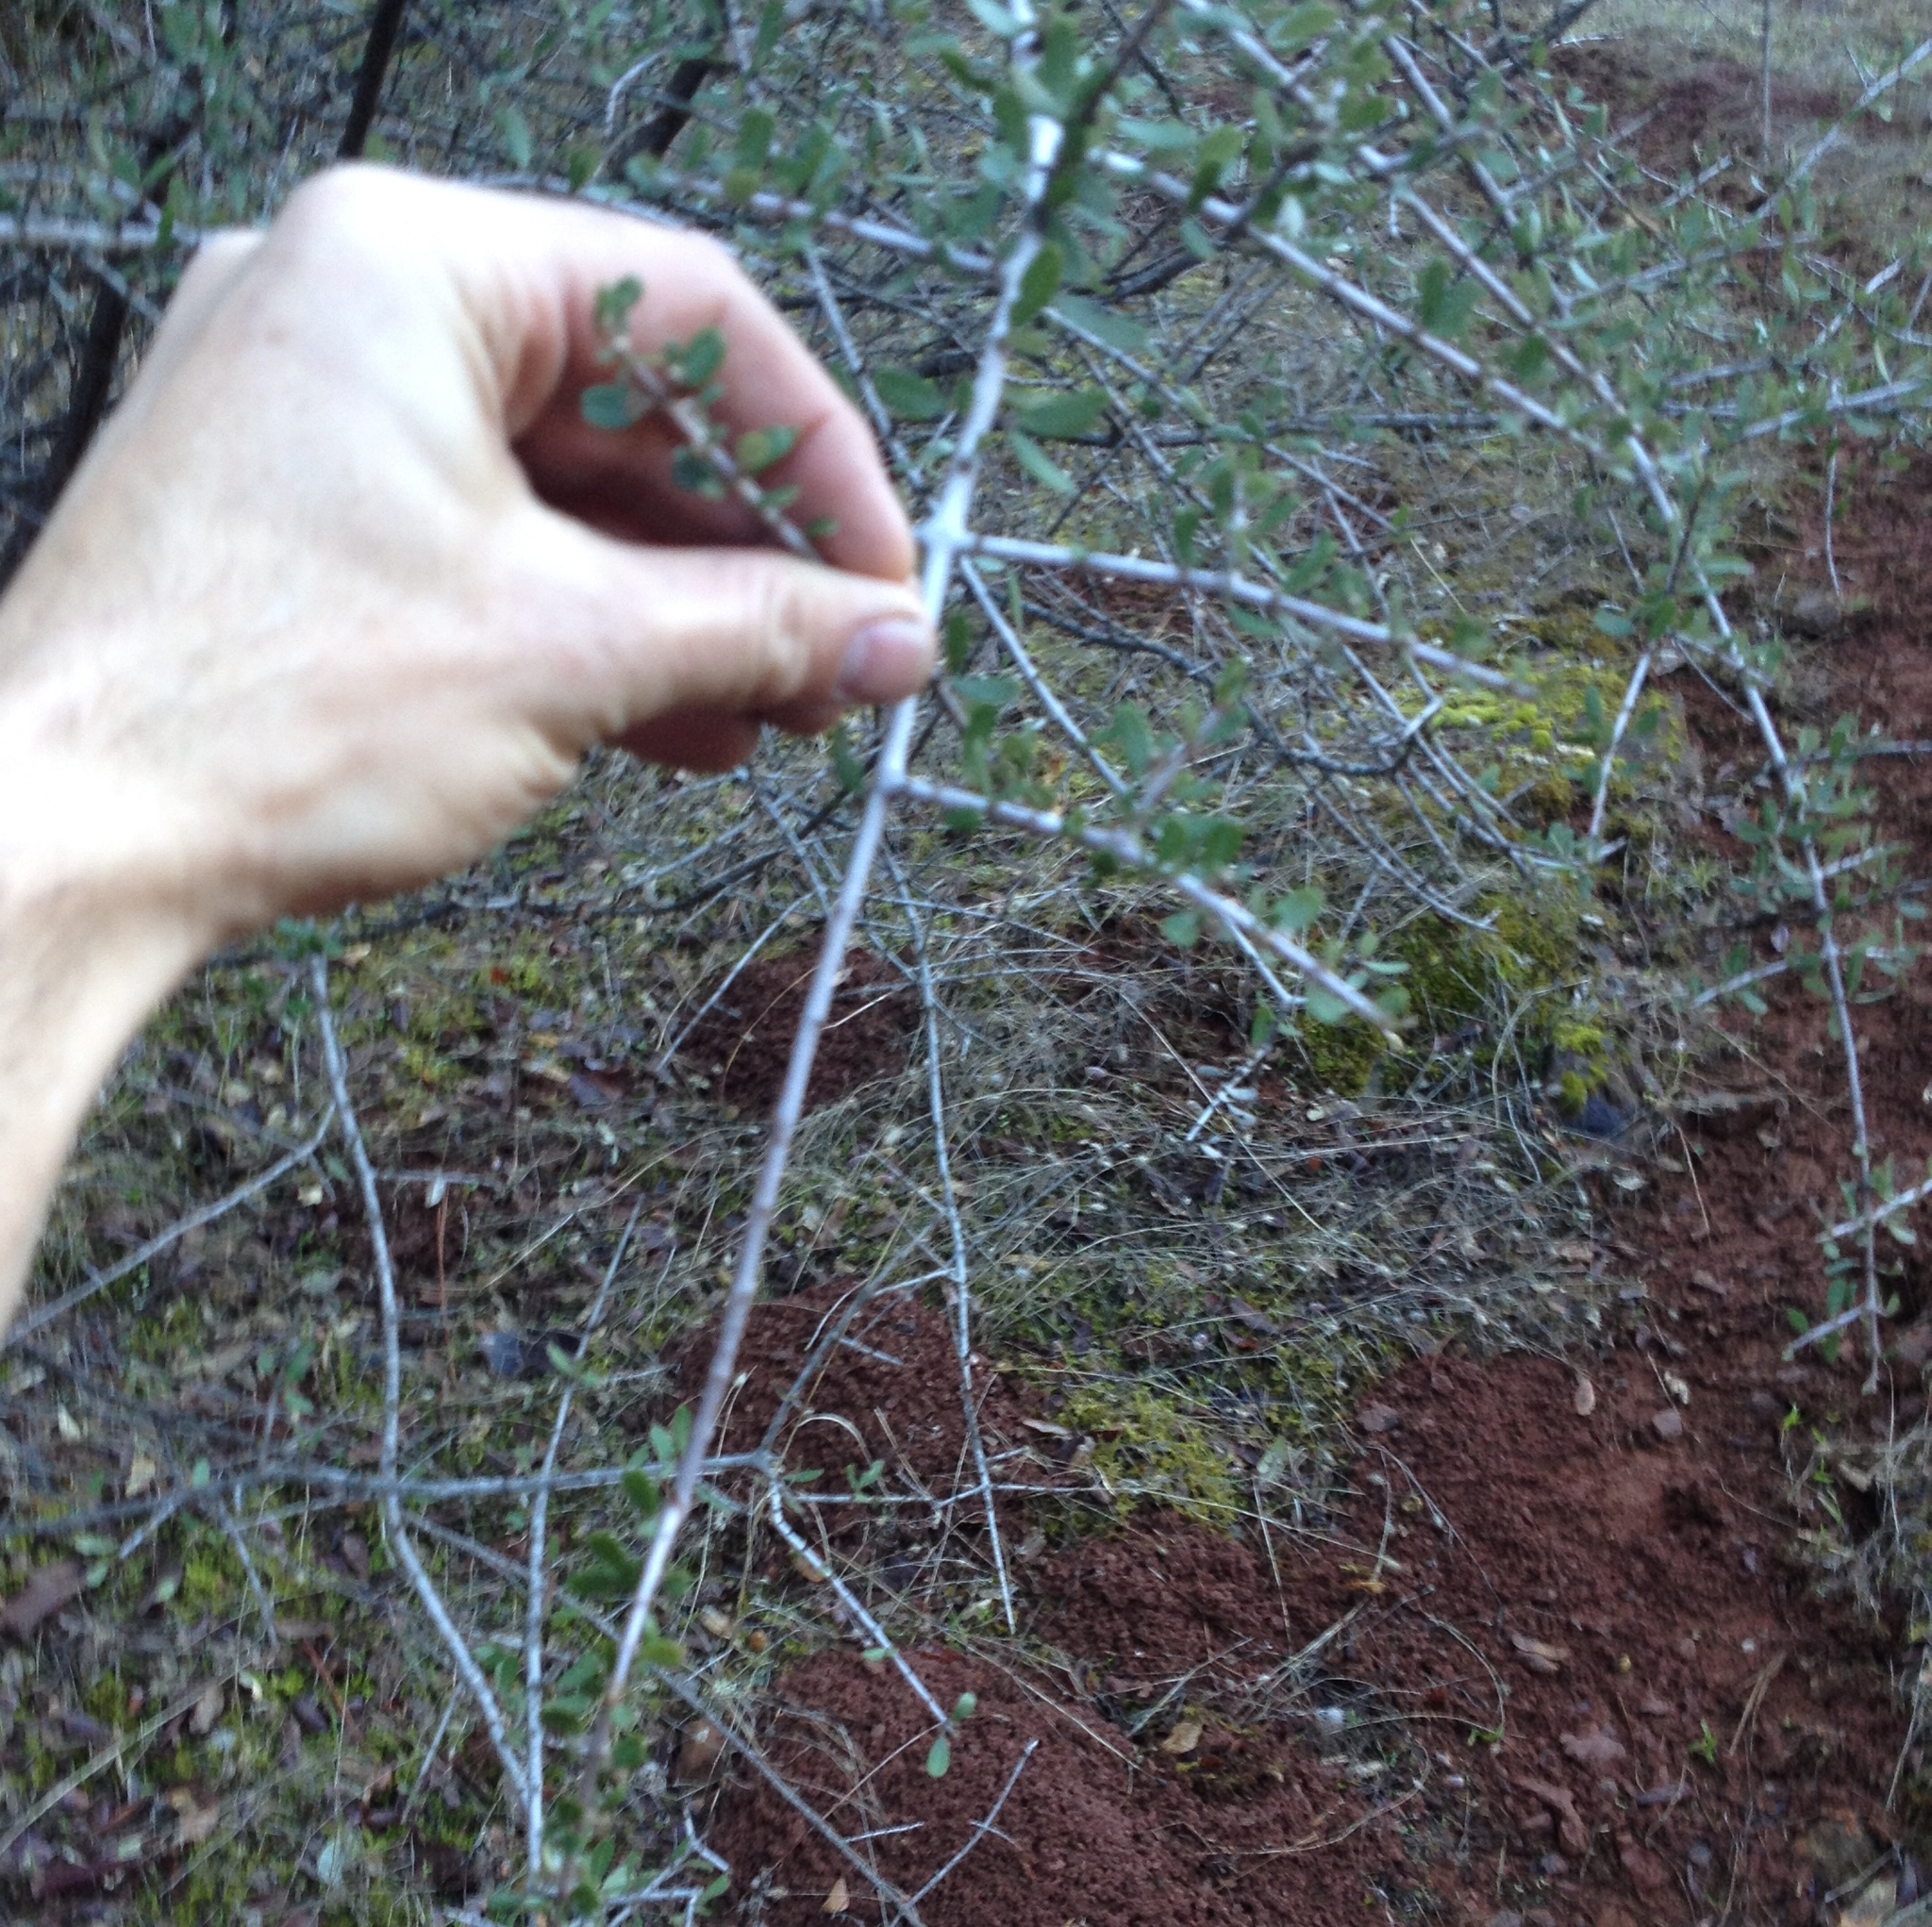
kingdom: Plantae
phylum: Tracheophyta
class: Magnoliopsida
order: Rosales
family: Rhamnaceae
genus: Ceanothus
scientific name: Ceanothus cuneatus
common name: Cuneate ceanothus
